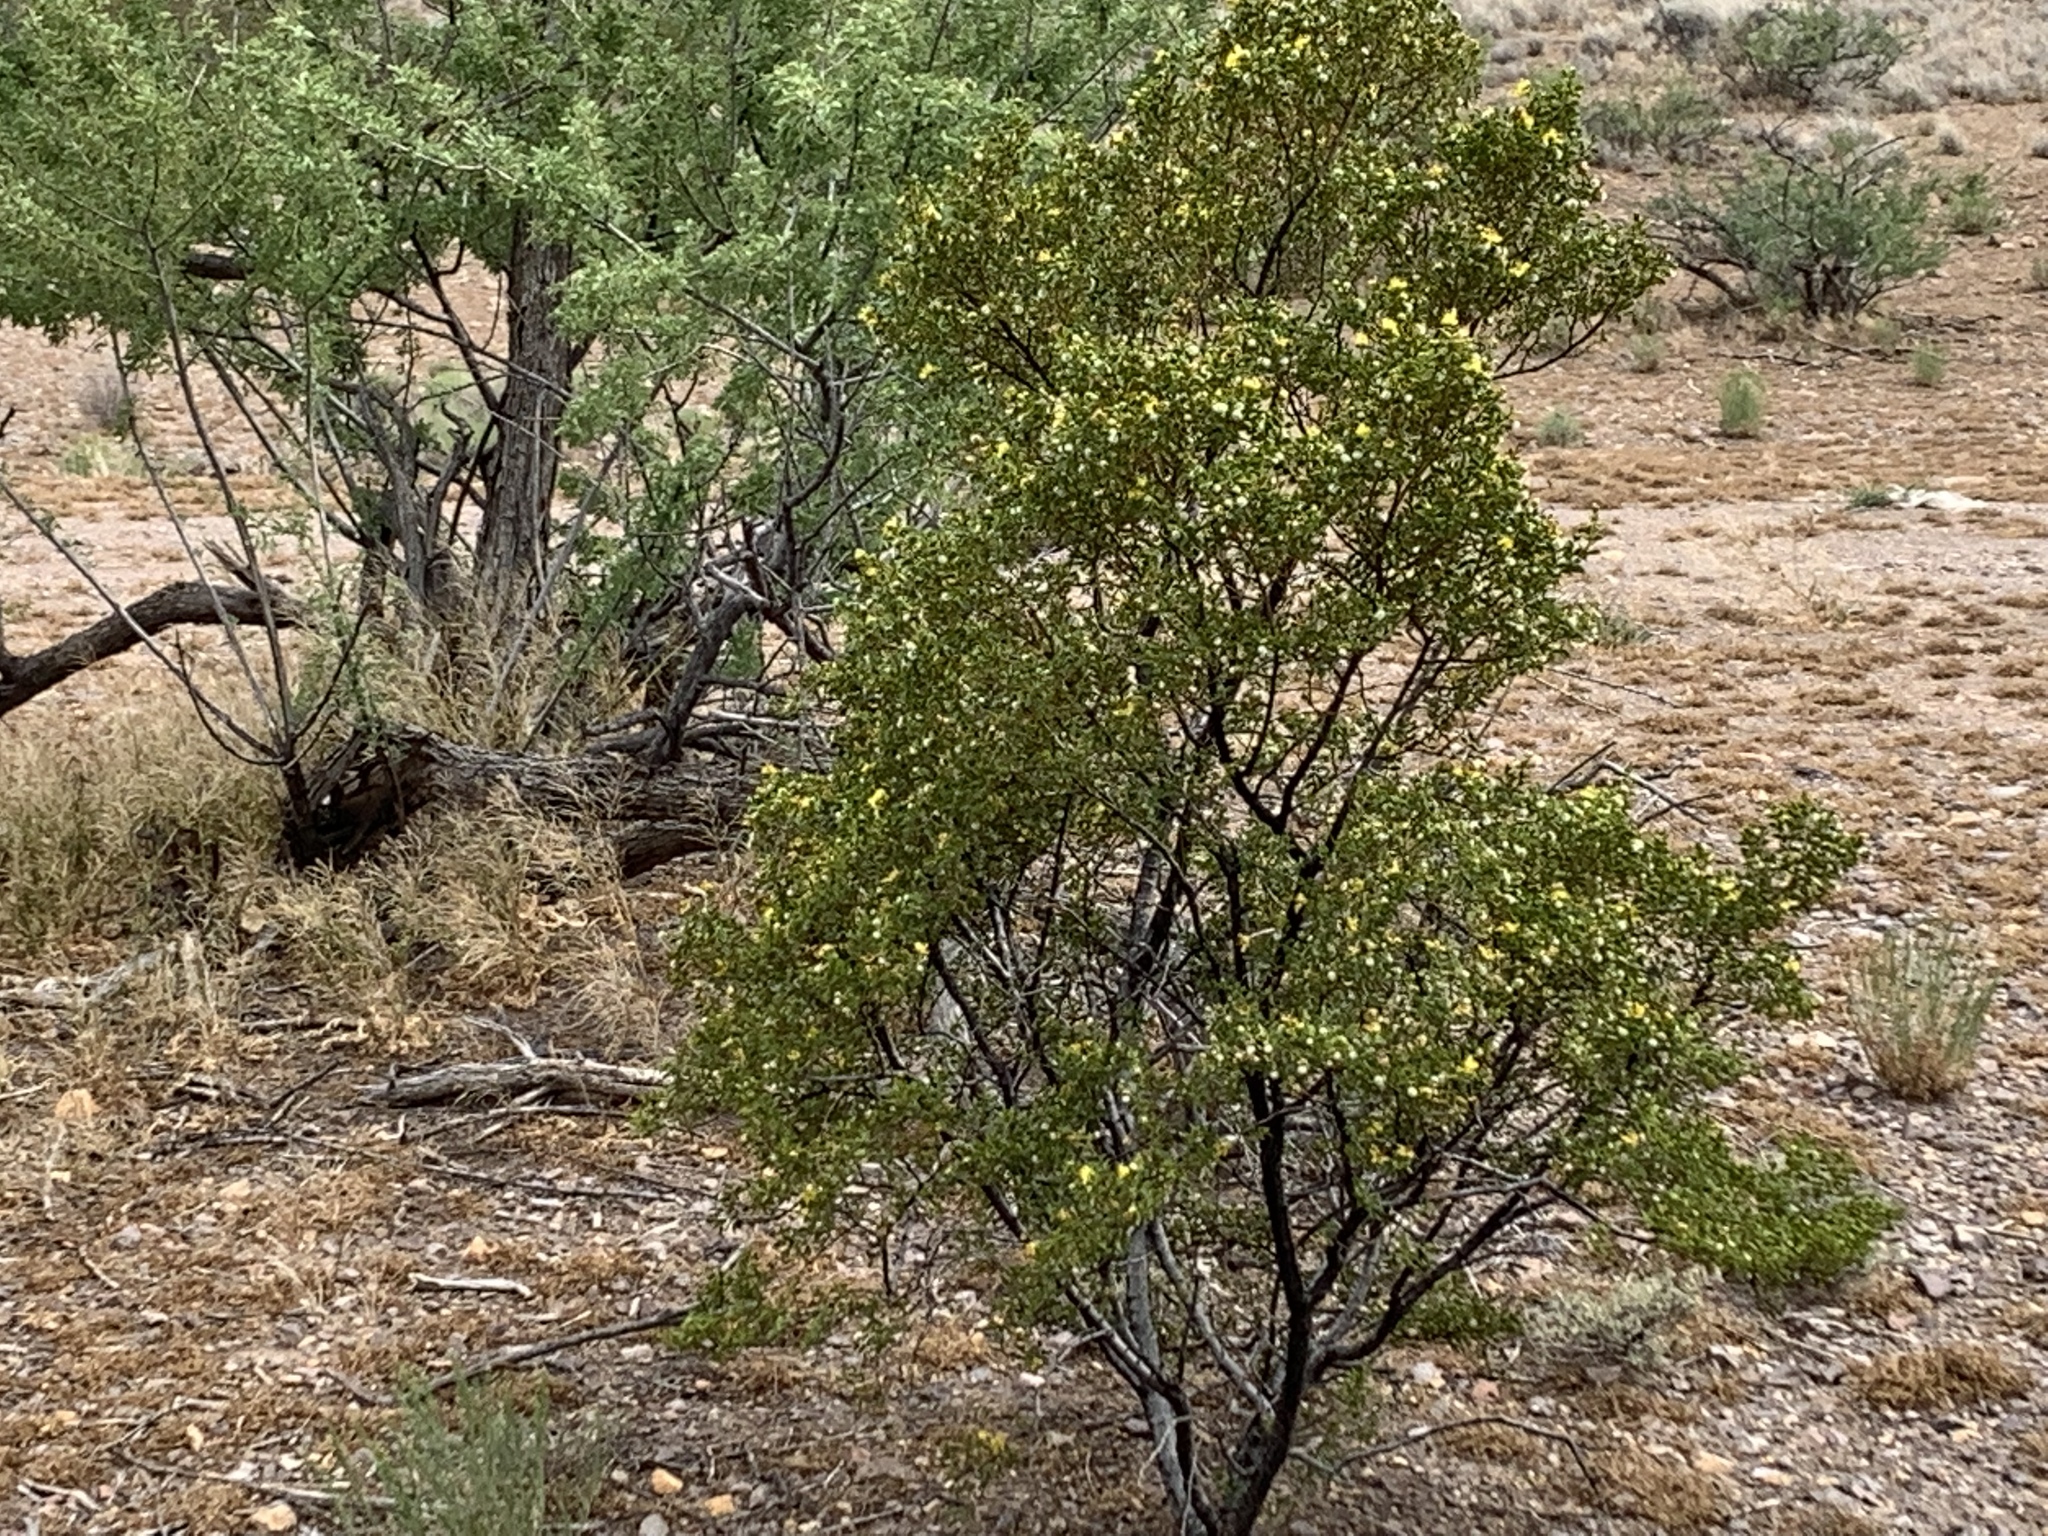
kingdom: Plantae
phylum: Tracheophyta
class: Magnoliopsida
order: Zygophyllales
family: Zygophyllaceae
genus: Larrea
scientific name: Larrea tridentata
